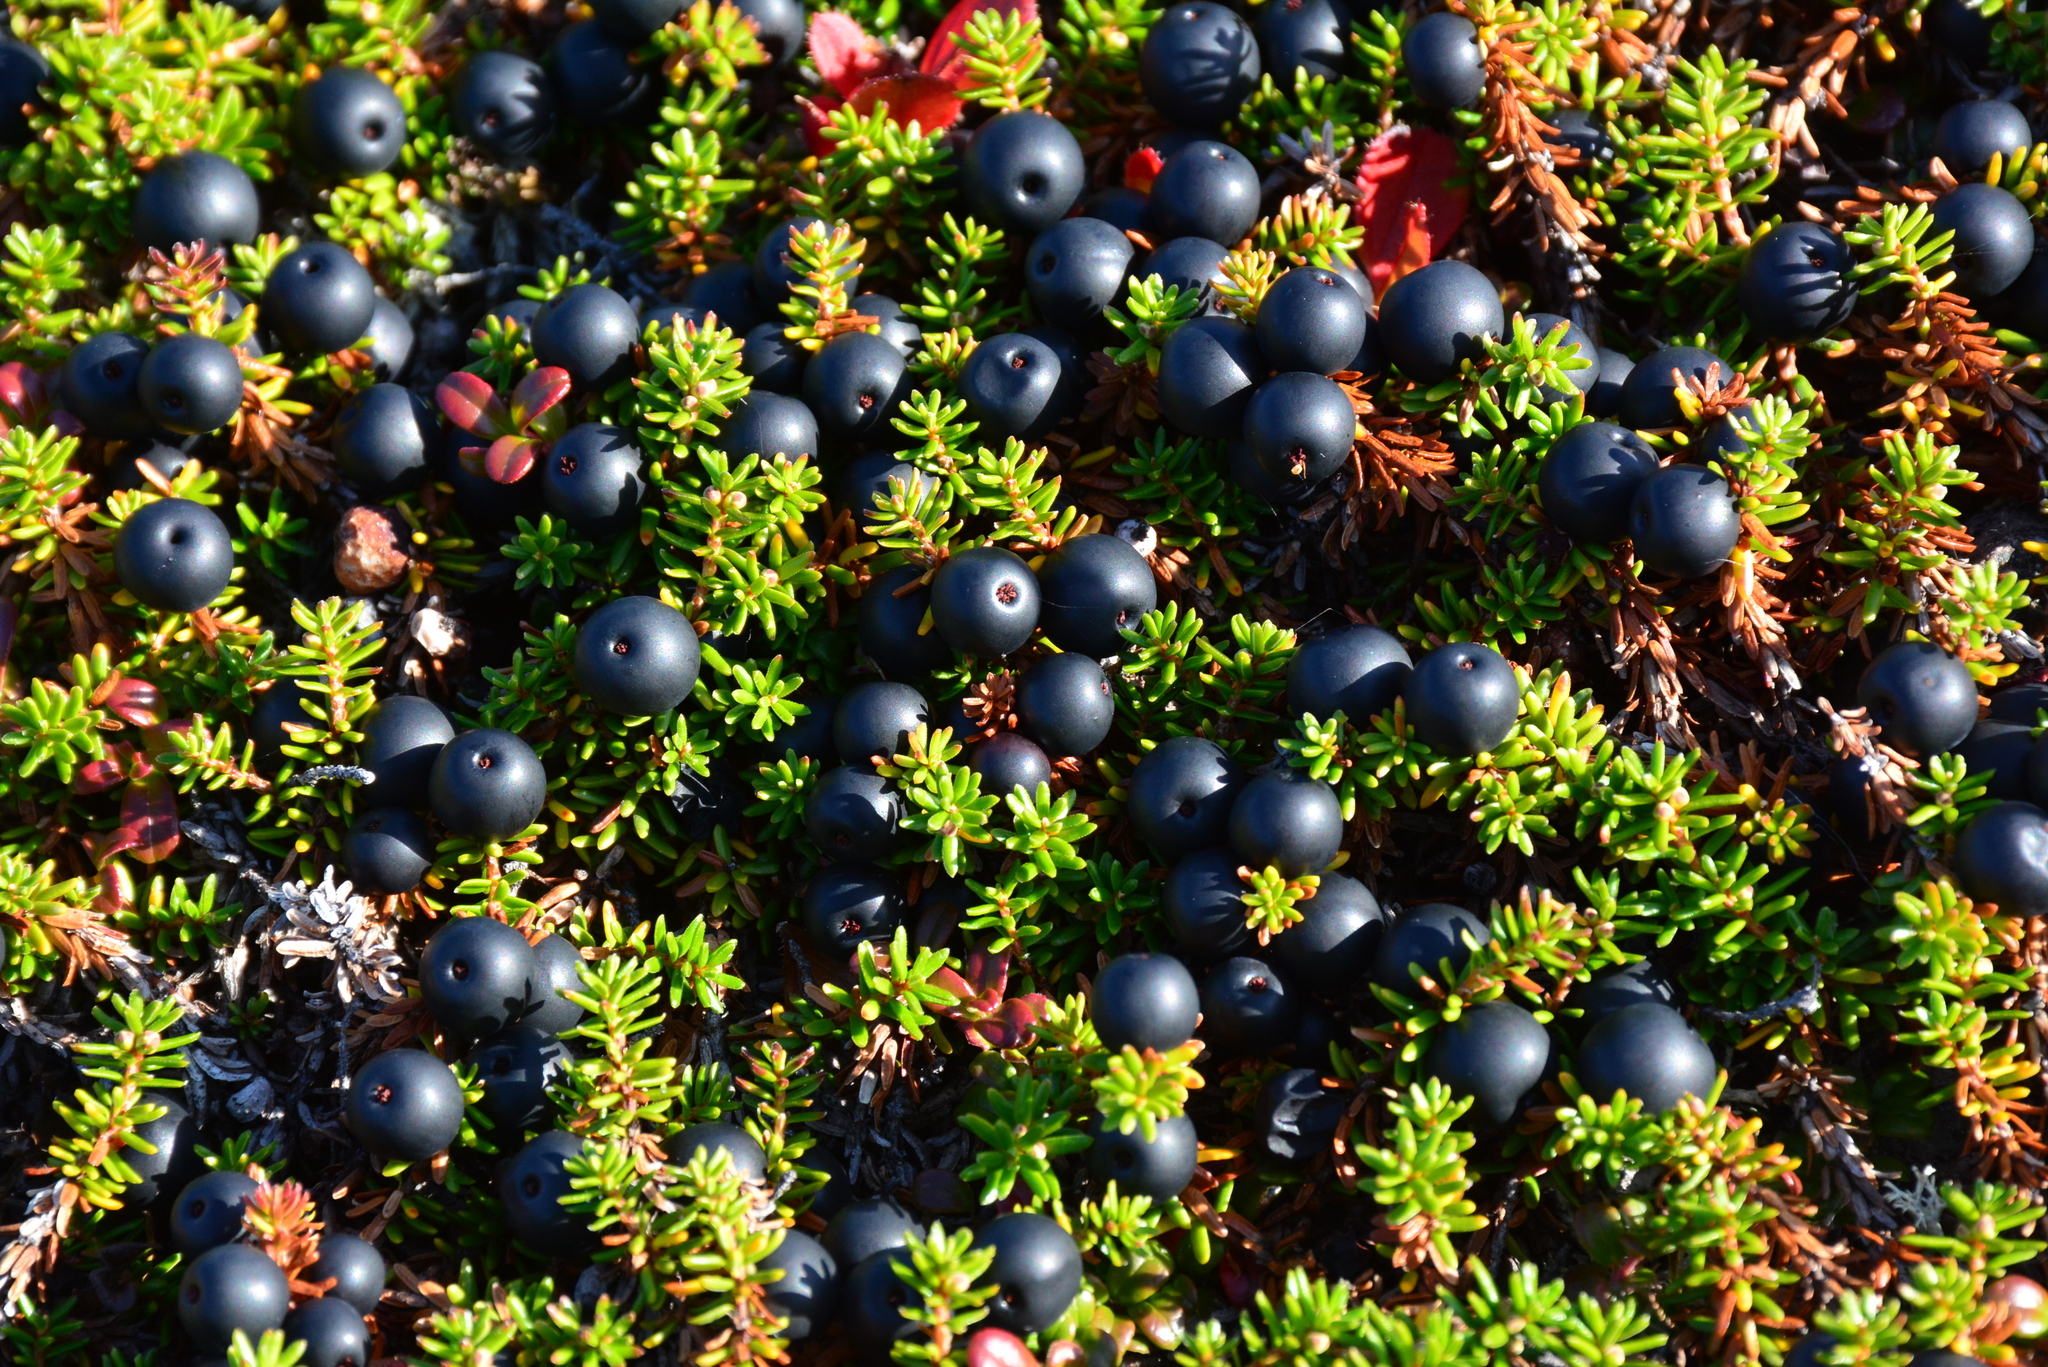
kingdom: Plantae
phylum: Tracheophyta
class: Magnoliopsida
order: Ericales
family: Ericaceae
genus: Empetrum
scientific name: Empetrum nigrum
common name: Black crowberry
